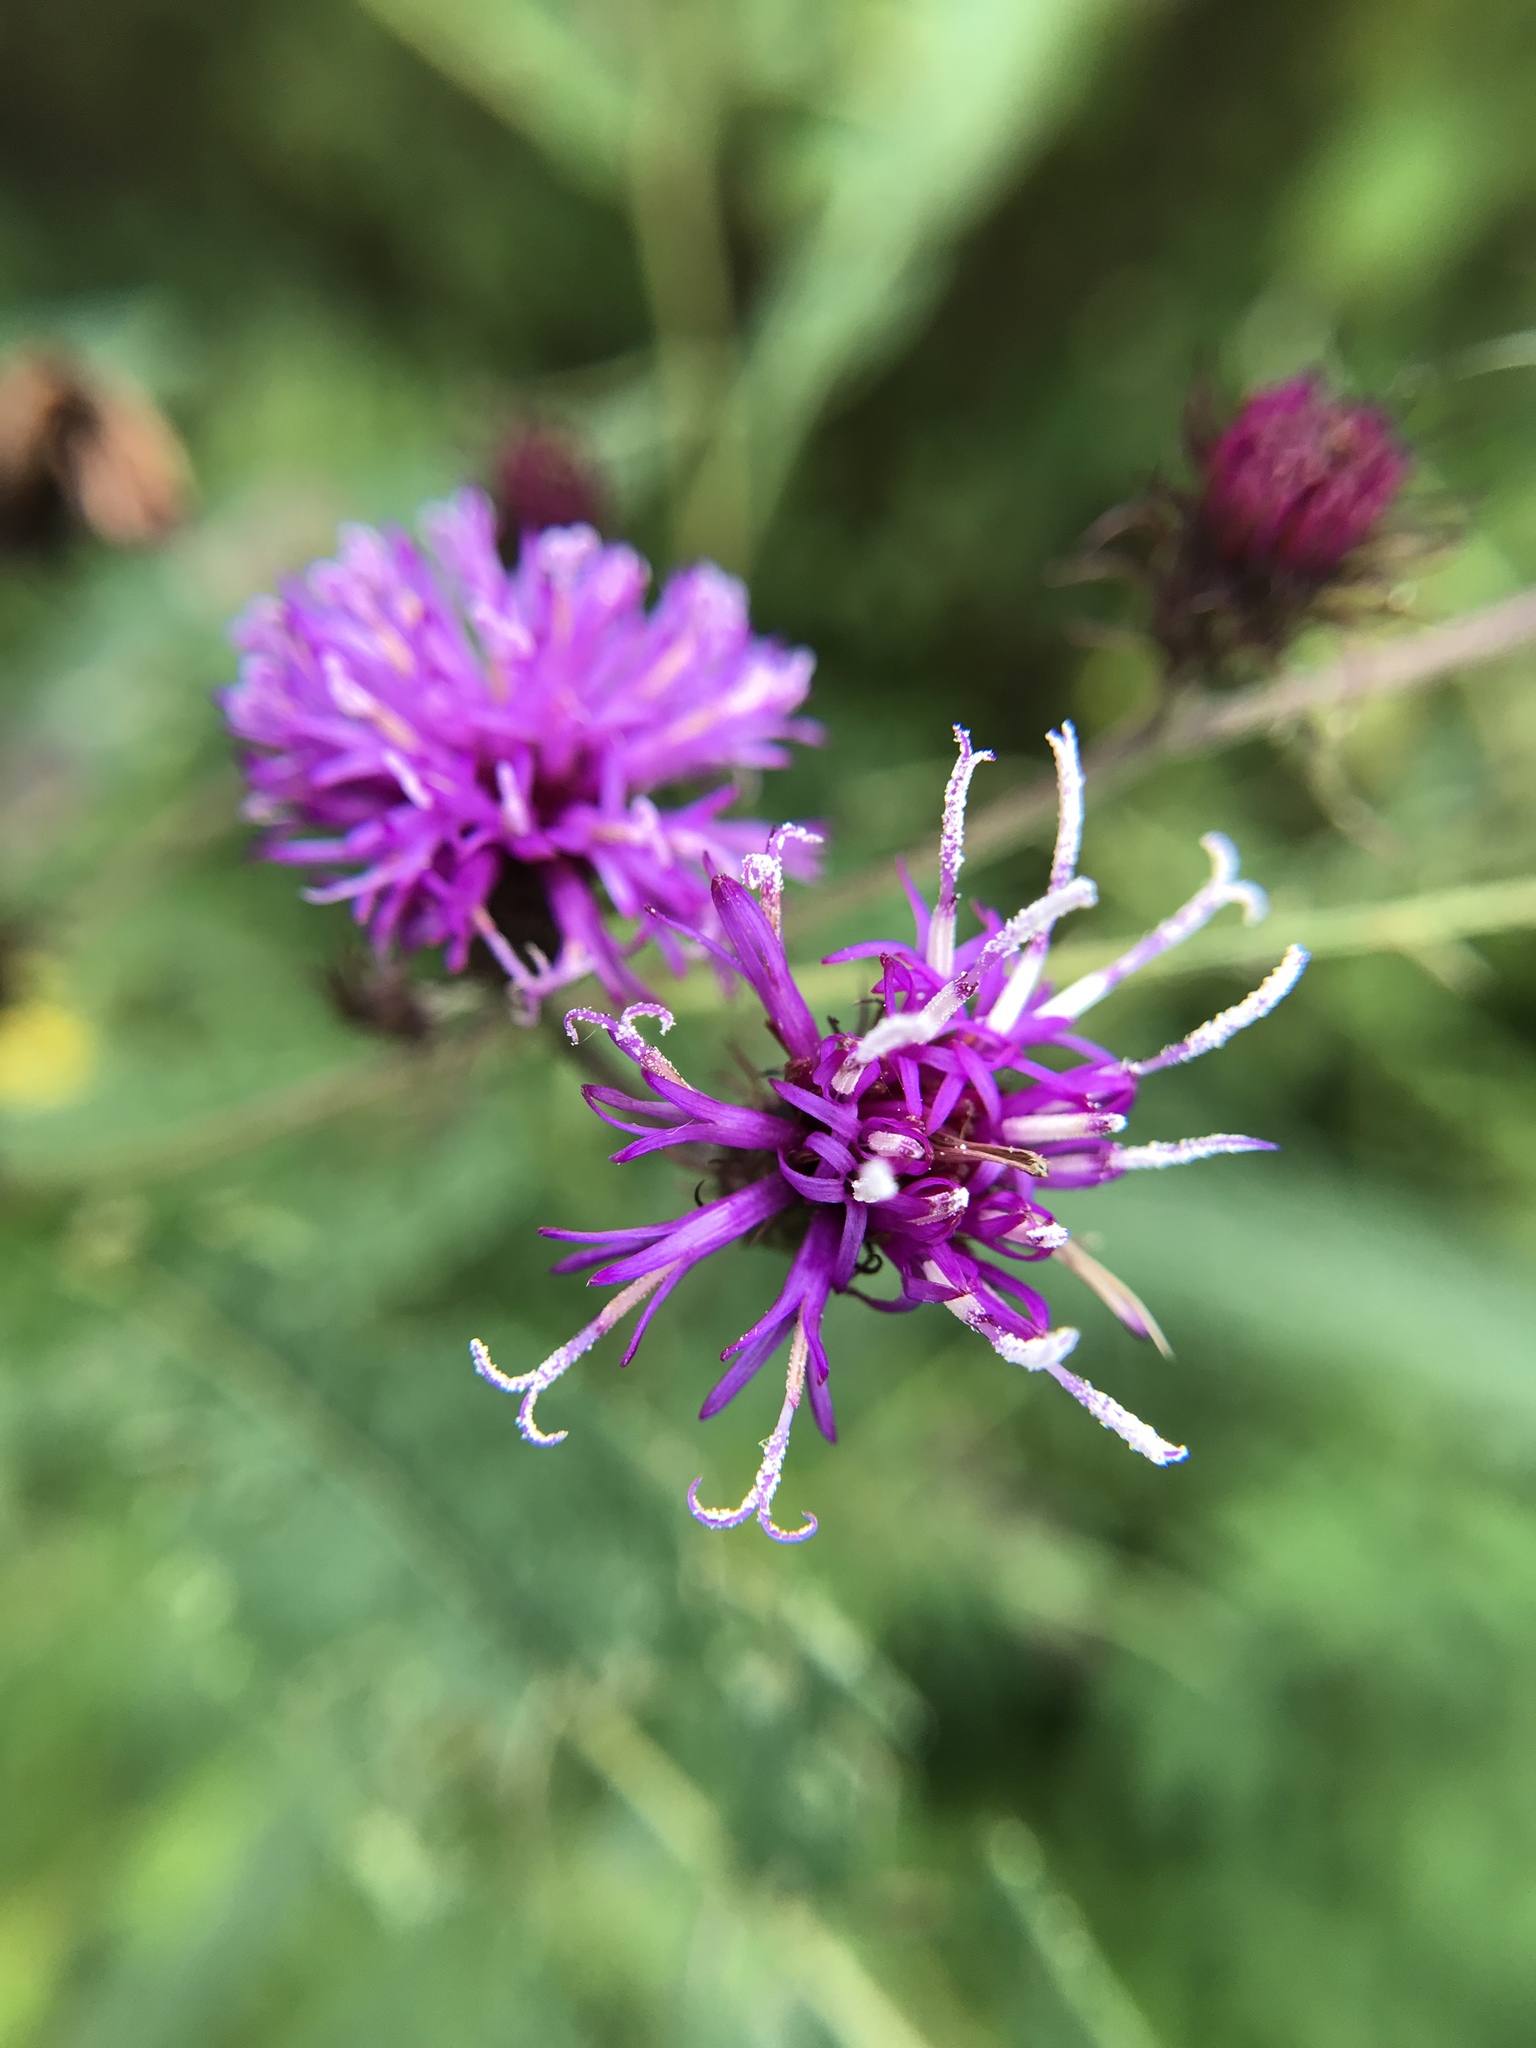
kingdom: Plantae
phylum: Tracheophyta
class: Magnoliopsida
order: Asterales
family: Asteraceae
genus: Vernonia
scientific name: Vernonia noveboracensis
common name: New york ironweed
